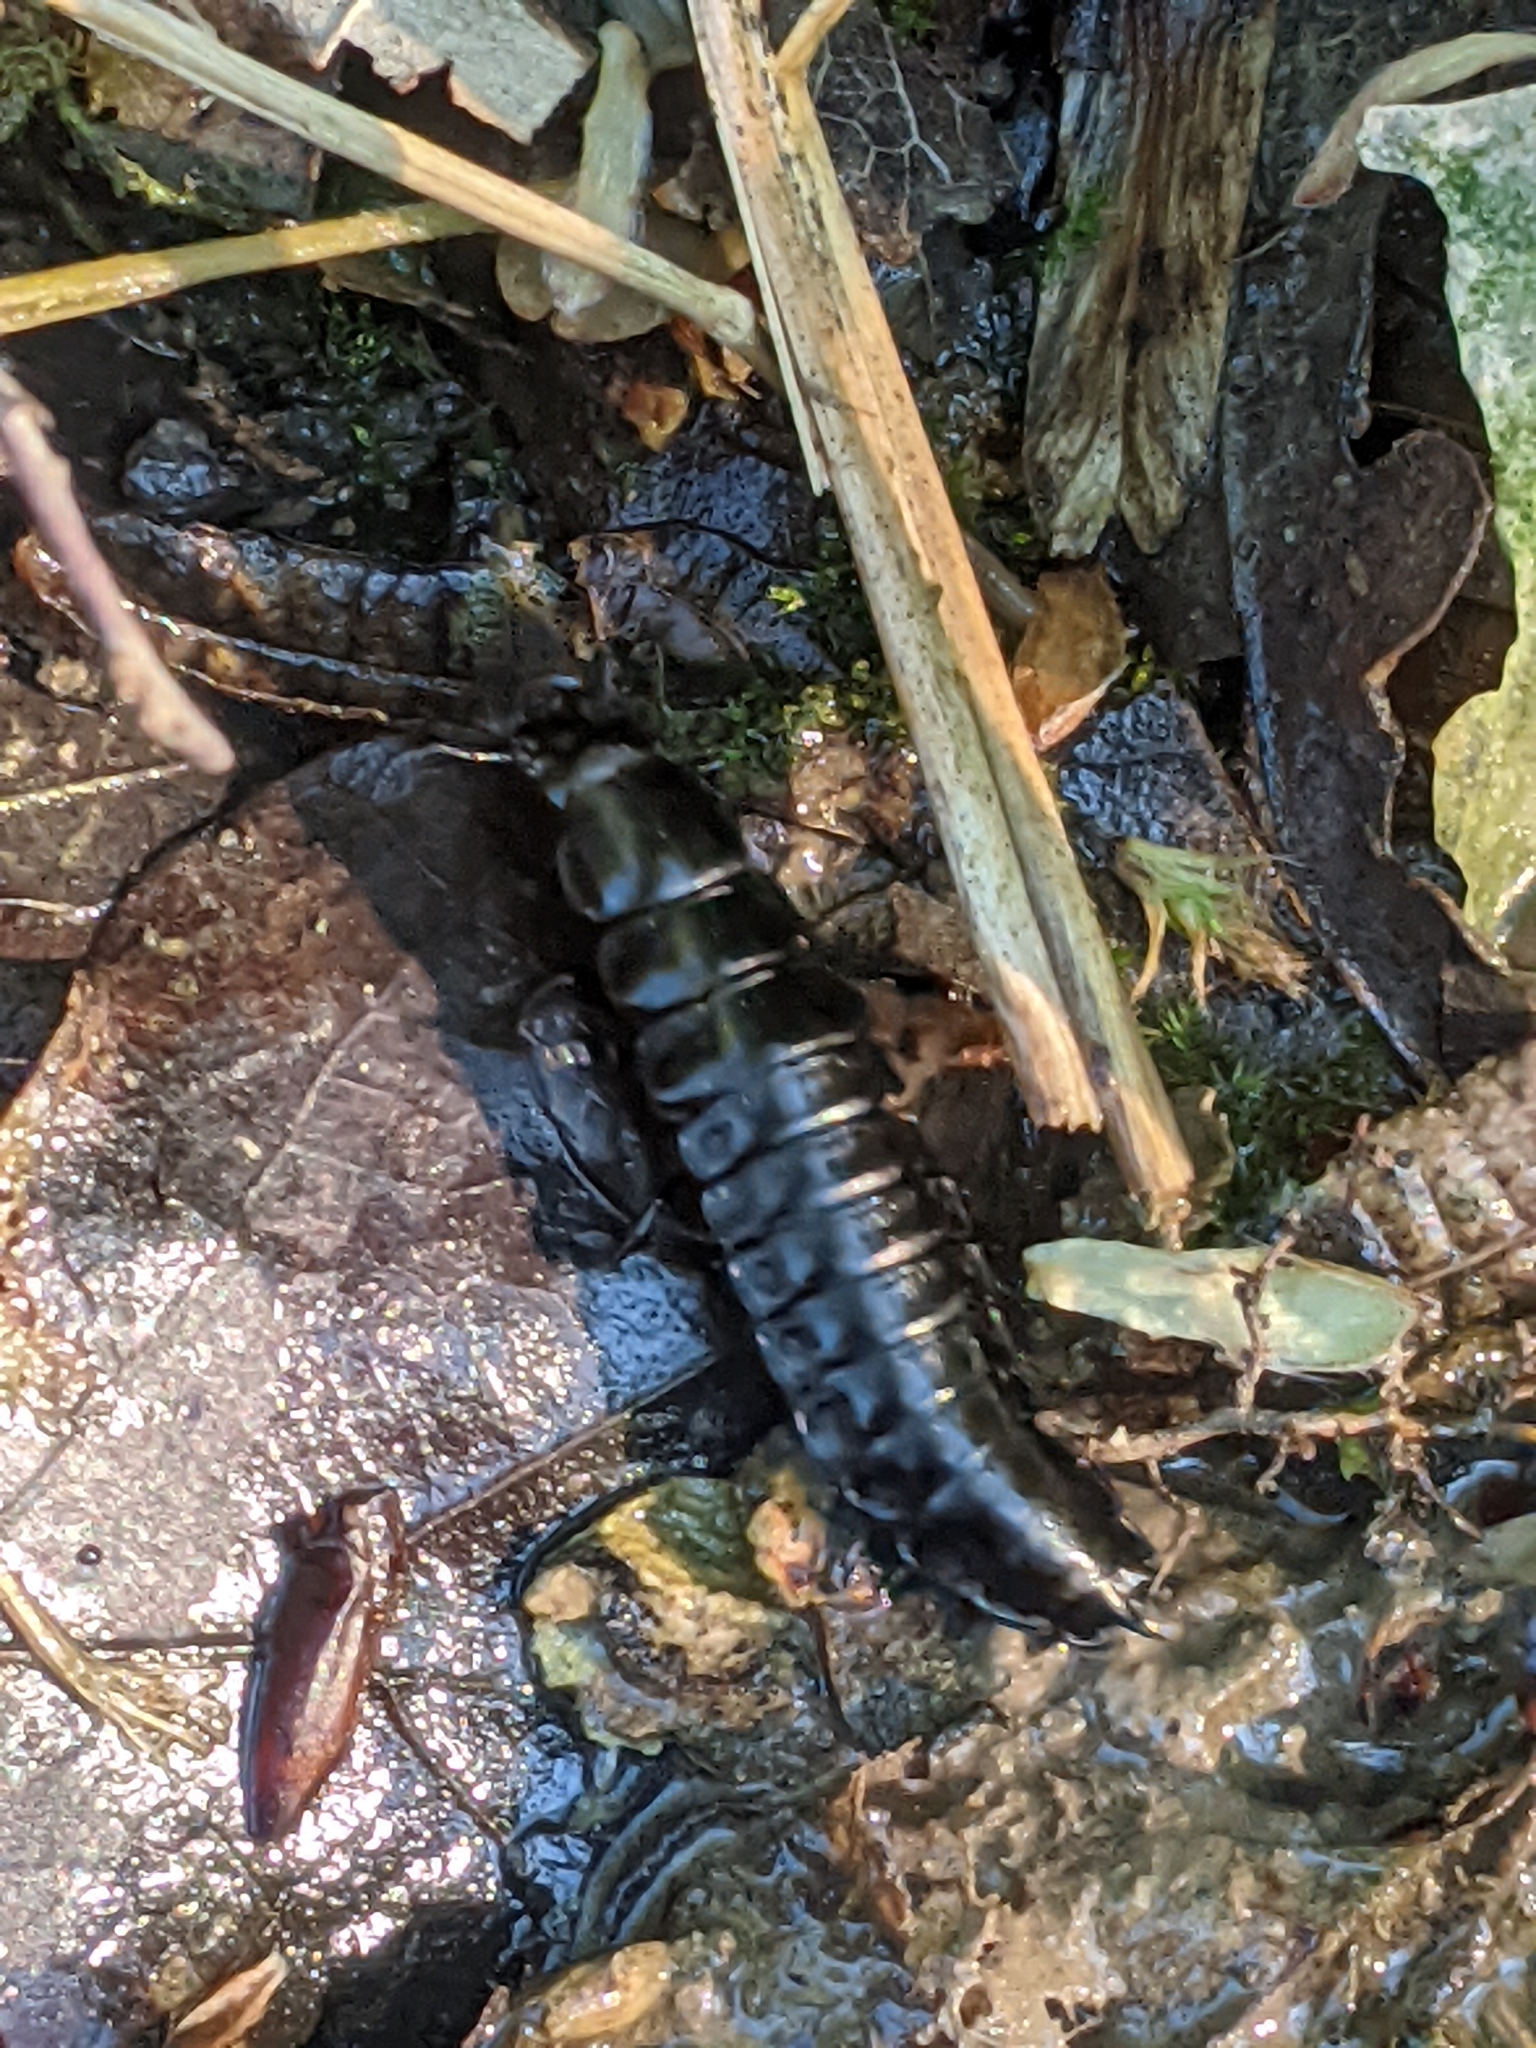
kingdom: Animalia
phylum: Arthropoda
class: Insecta
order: Coleoptera
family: Carabidae
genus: Carabus
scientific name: Carabus
